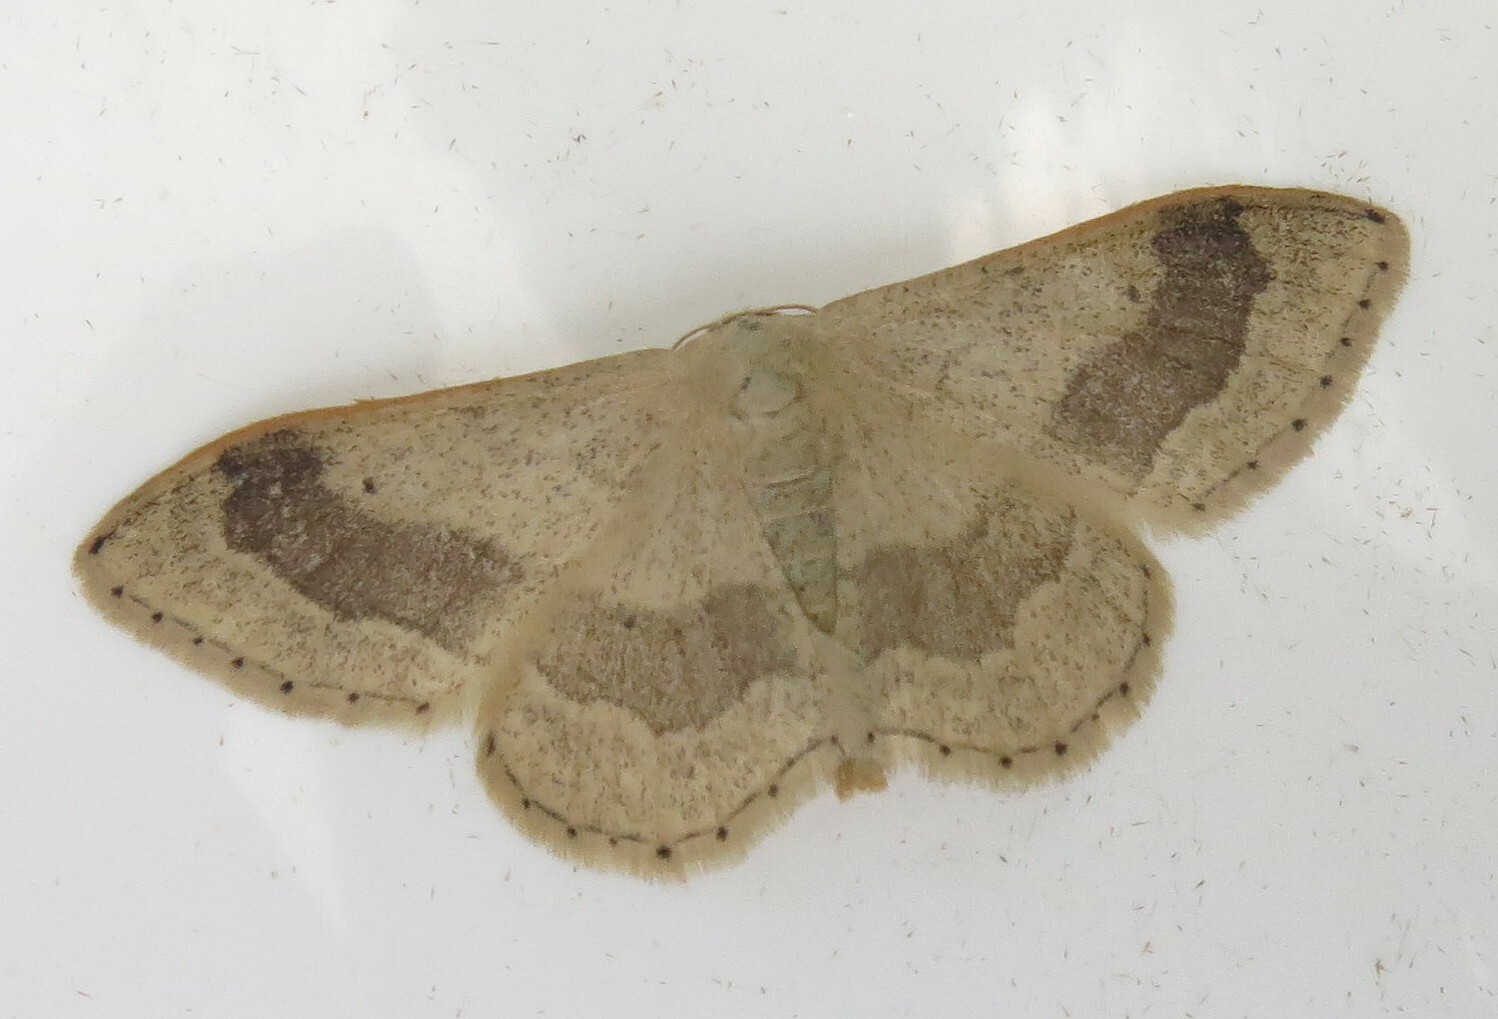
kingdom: Animalia
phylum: Arthropoda
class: Insecta
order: Lepidoptera
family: Geometridae
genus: Idaea
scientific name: Idaea aversata
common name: Riband wave
